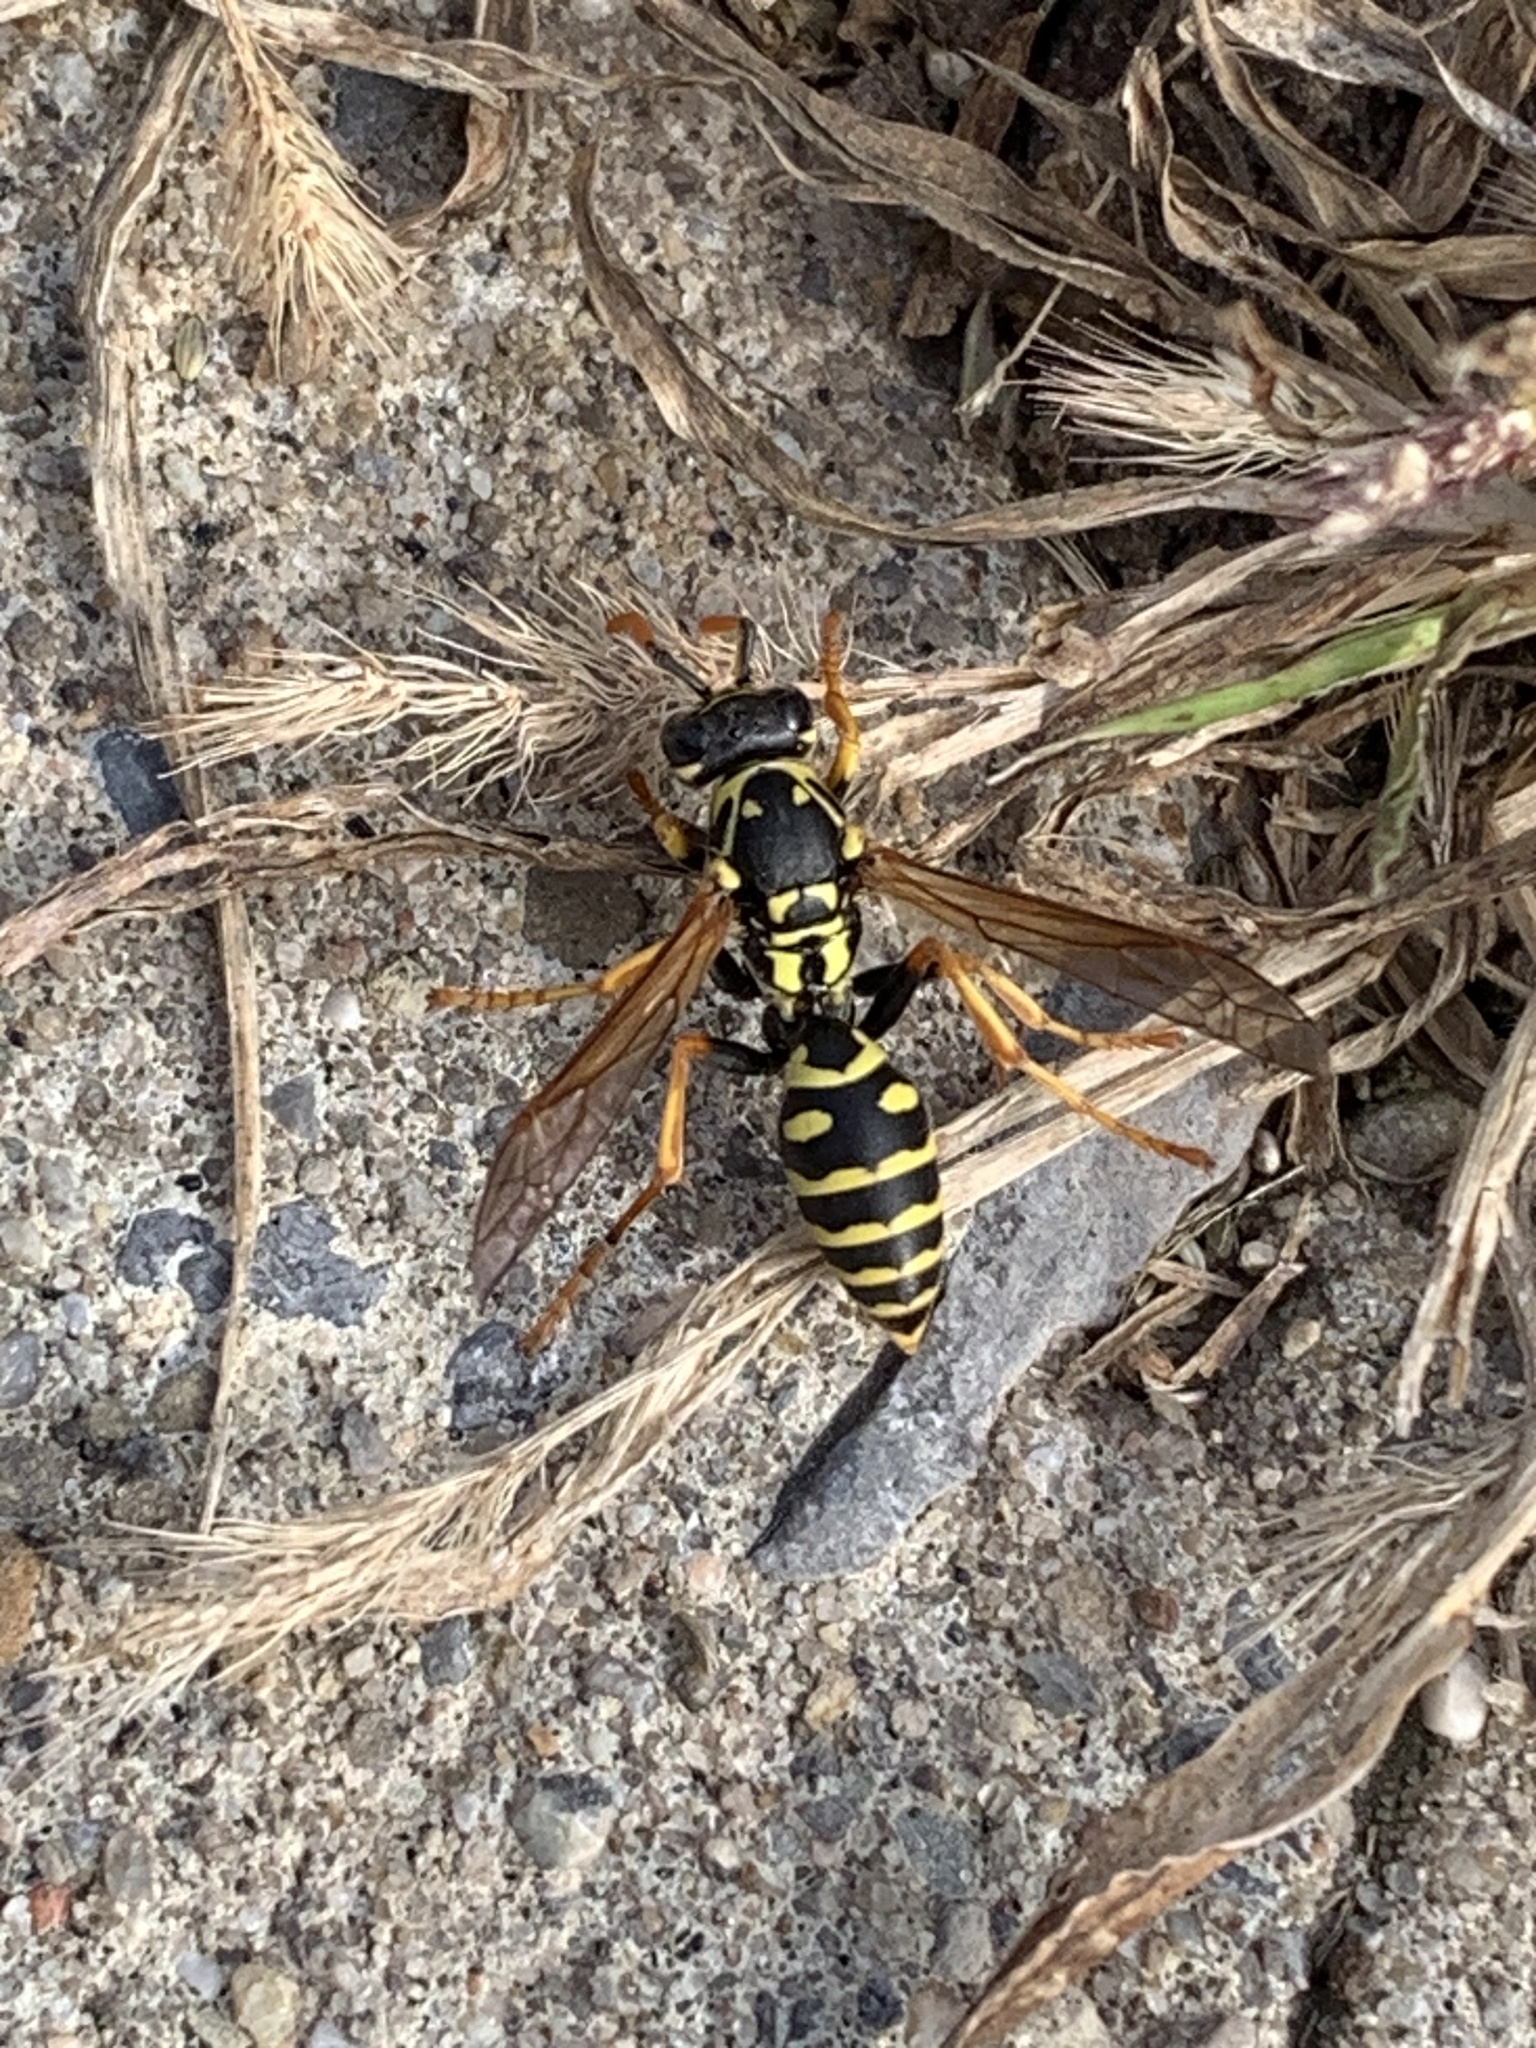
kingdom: Animalia
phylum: Arthropoda
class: Insecta
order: Hymenoptera
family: Eumenidae
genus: Polistes
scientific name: Polistes dominula
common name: Paper wasp
